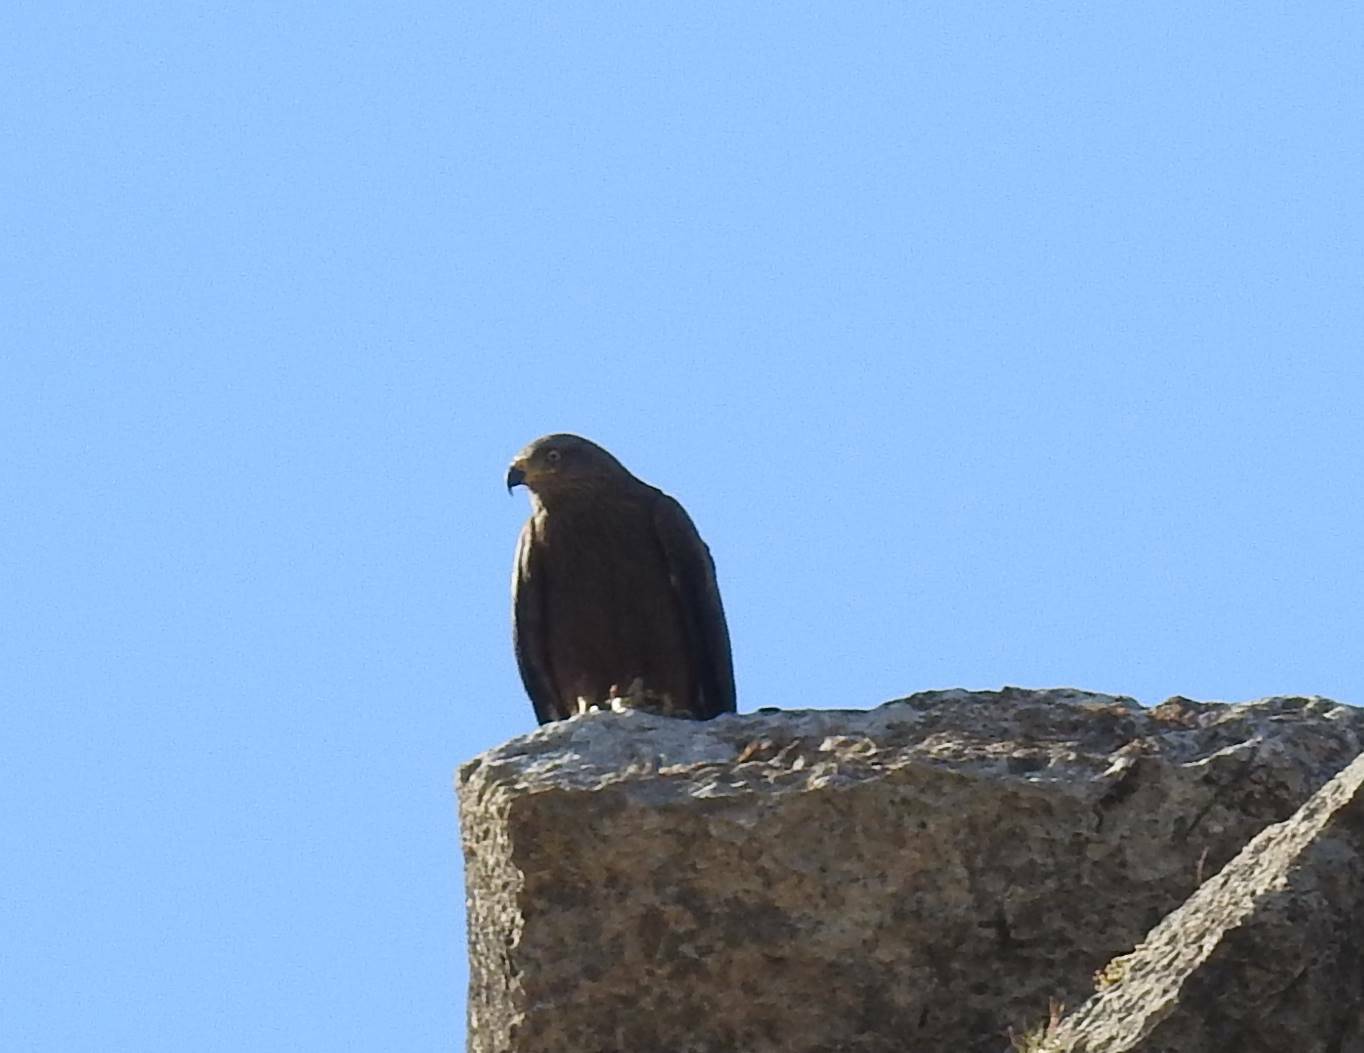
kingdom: Animalia
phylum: Chordata
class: Aves
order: Accipitriformes
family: Accipitridae
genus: Milvus
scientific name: Milvus migrans
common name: Black kite
